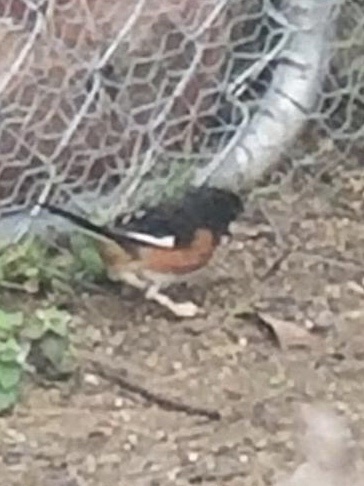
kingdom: Animalia
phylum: Chordata
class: Aves
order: Passeriformes
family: Passerellidae
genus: Pipilo
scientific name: Pipilo erythrophthalmus
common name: Eastern towhee
